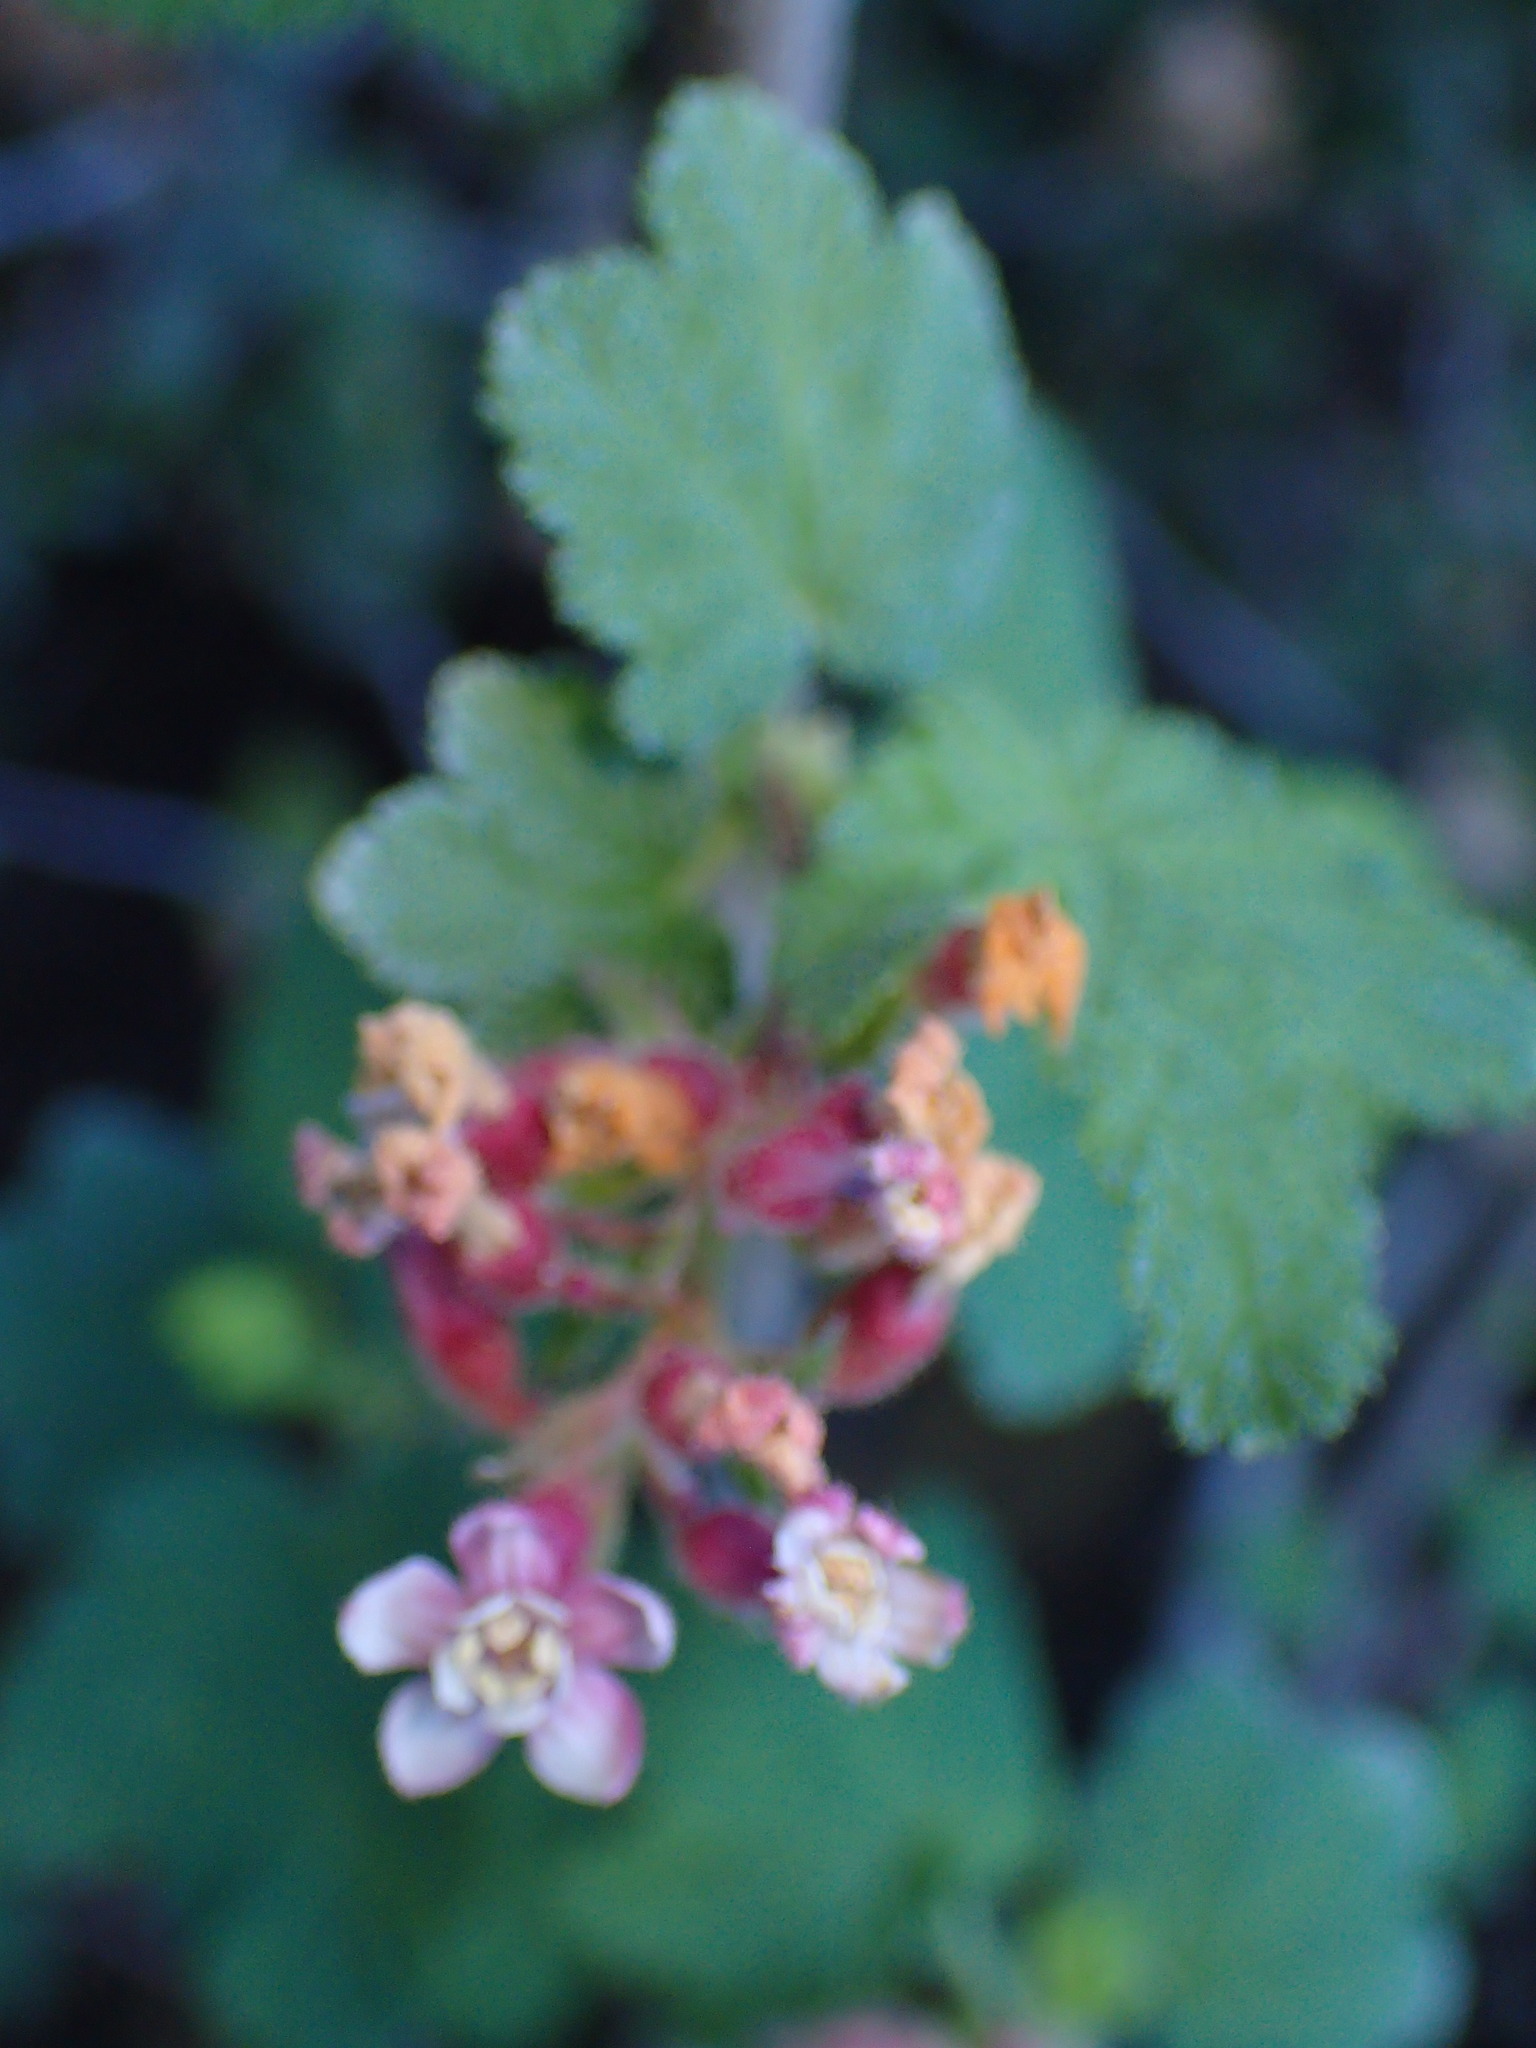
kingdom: Plantae
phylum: Tracheophyta
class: Magnoliopsida
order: Saxifragales
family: Grossulariaceae
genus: Ribes
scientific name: Ribes malvaceum
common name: Chaparral currant
